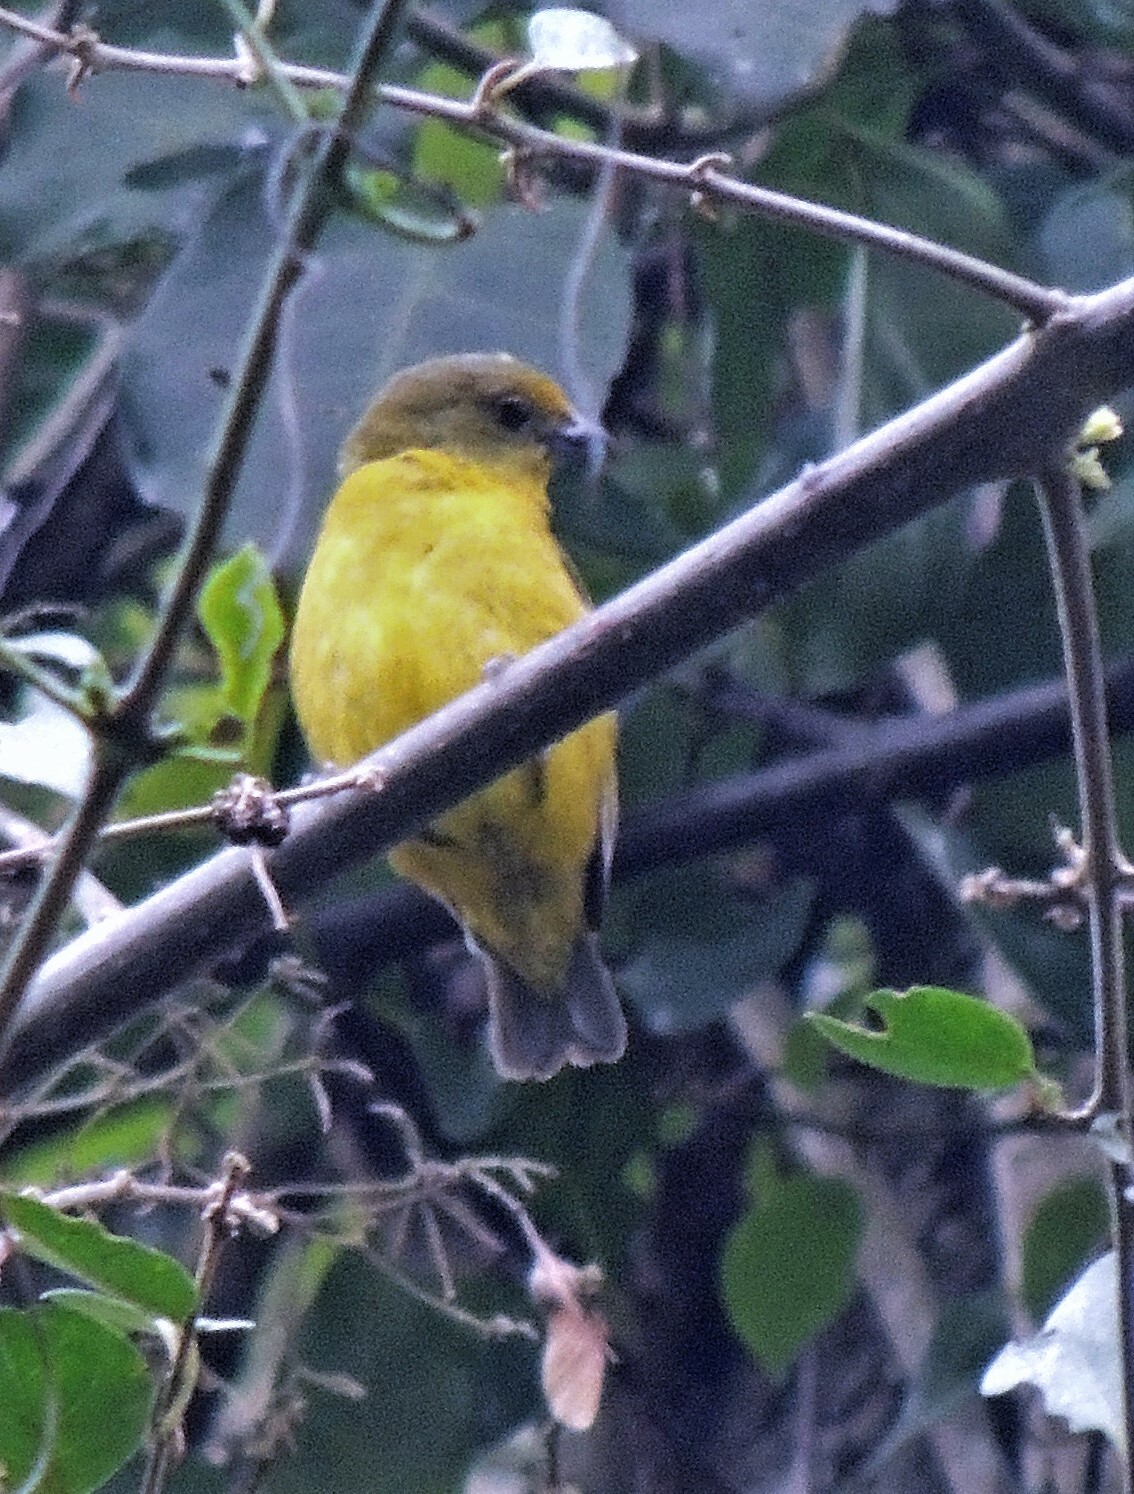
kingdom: Animalia
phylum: Chordata
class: Aves
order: Passeriformes
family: Fringillidae
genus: Euphonia
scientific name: Euphonia violacea
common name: Violaceous euphonia
